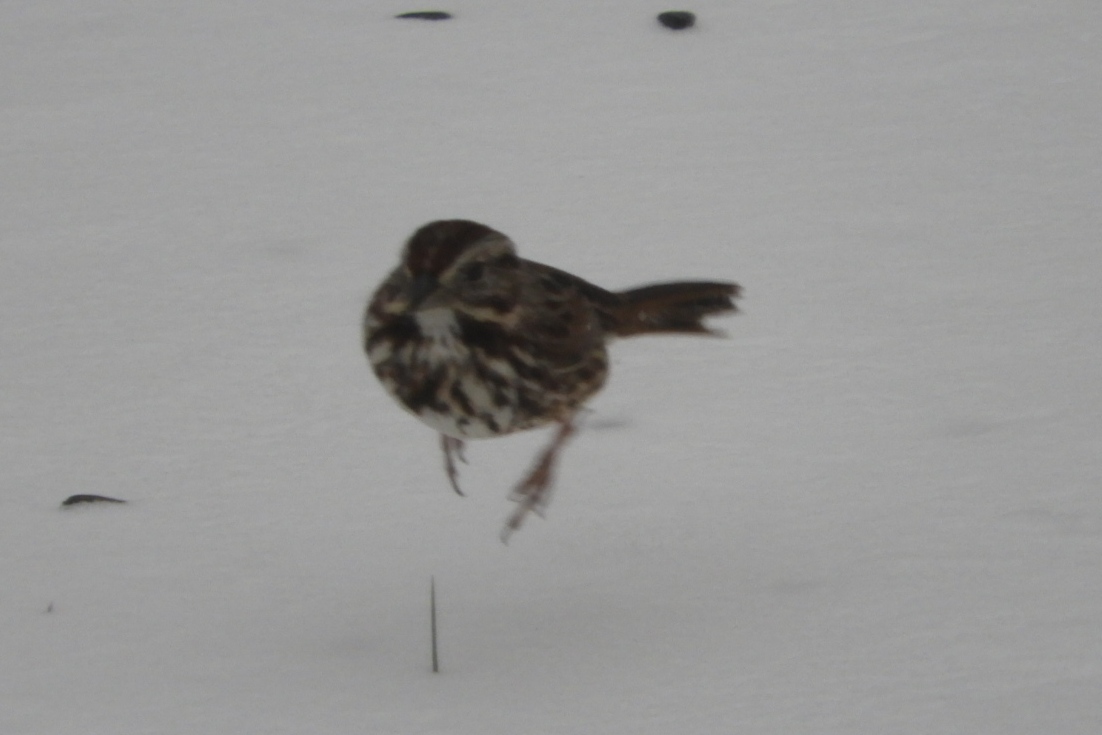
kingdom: Animalia
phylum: Chordata
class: Aves
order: Passeriformes
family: Passerellidae
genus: Melospiza
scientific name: Melospiza melodia
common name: Song sparrow
